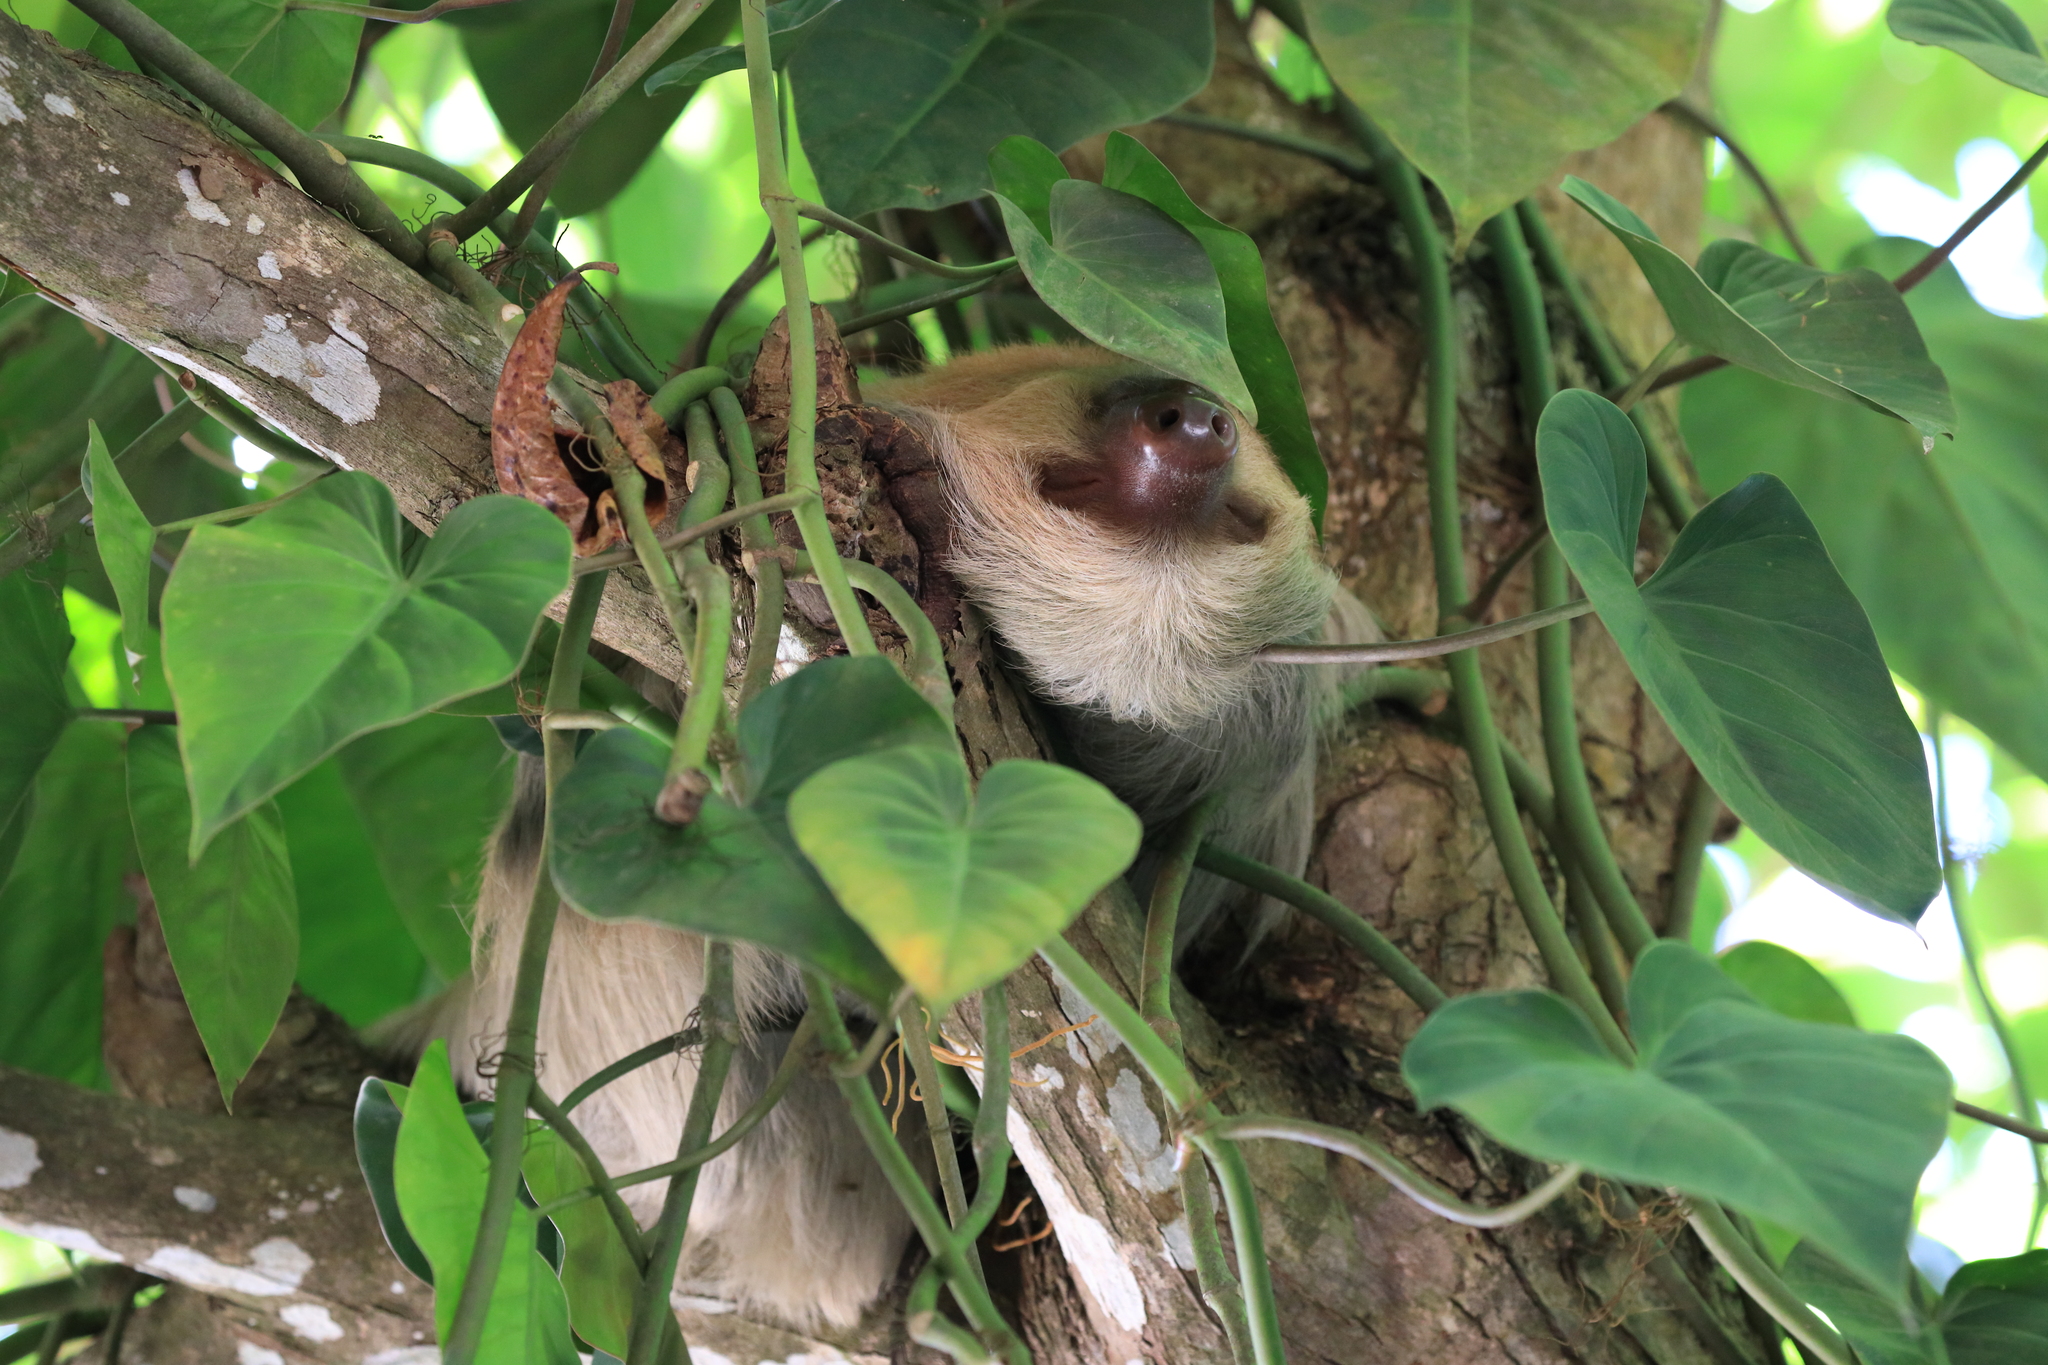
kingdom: Animalia
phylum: Chordata
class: Mammalia
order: Pilosa
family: Megalonychidae
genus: Choloepus
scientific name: Choloepus hoffmanni
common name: Hoffmann's two-toed sloth
